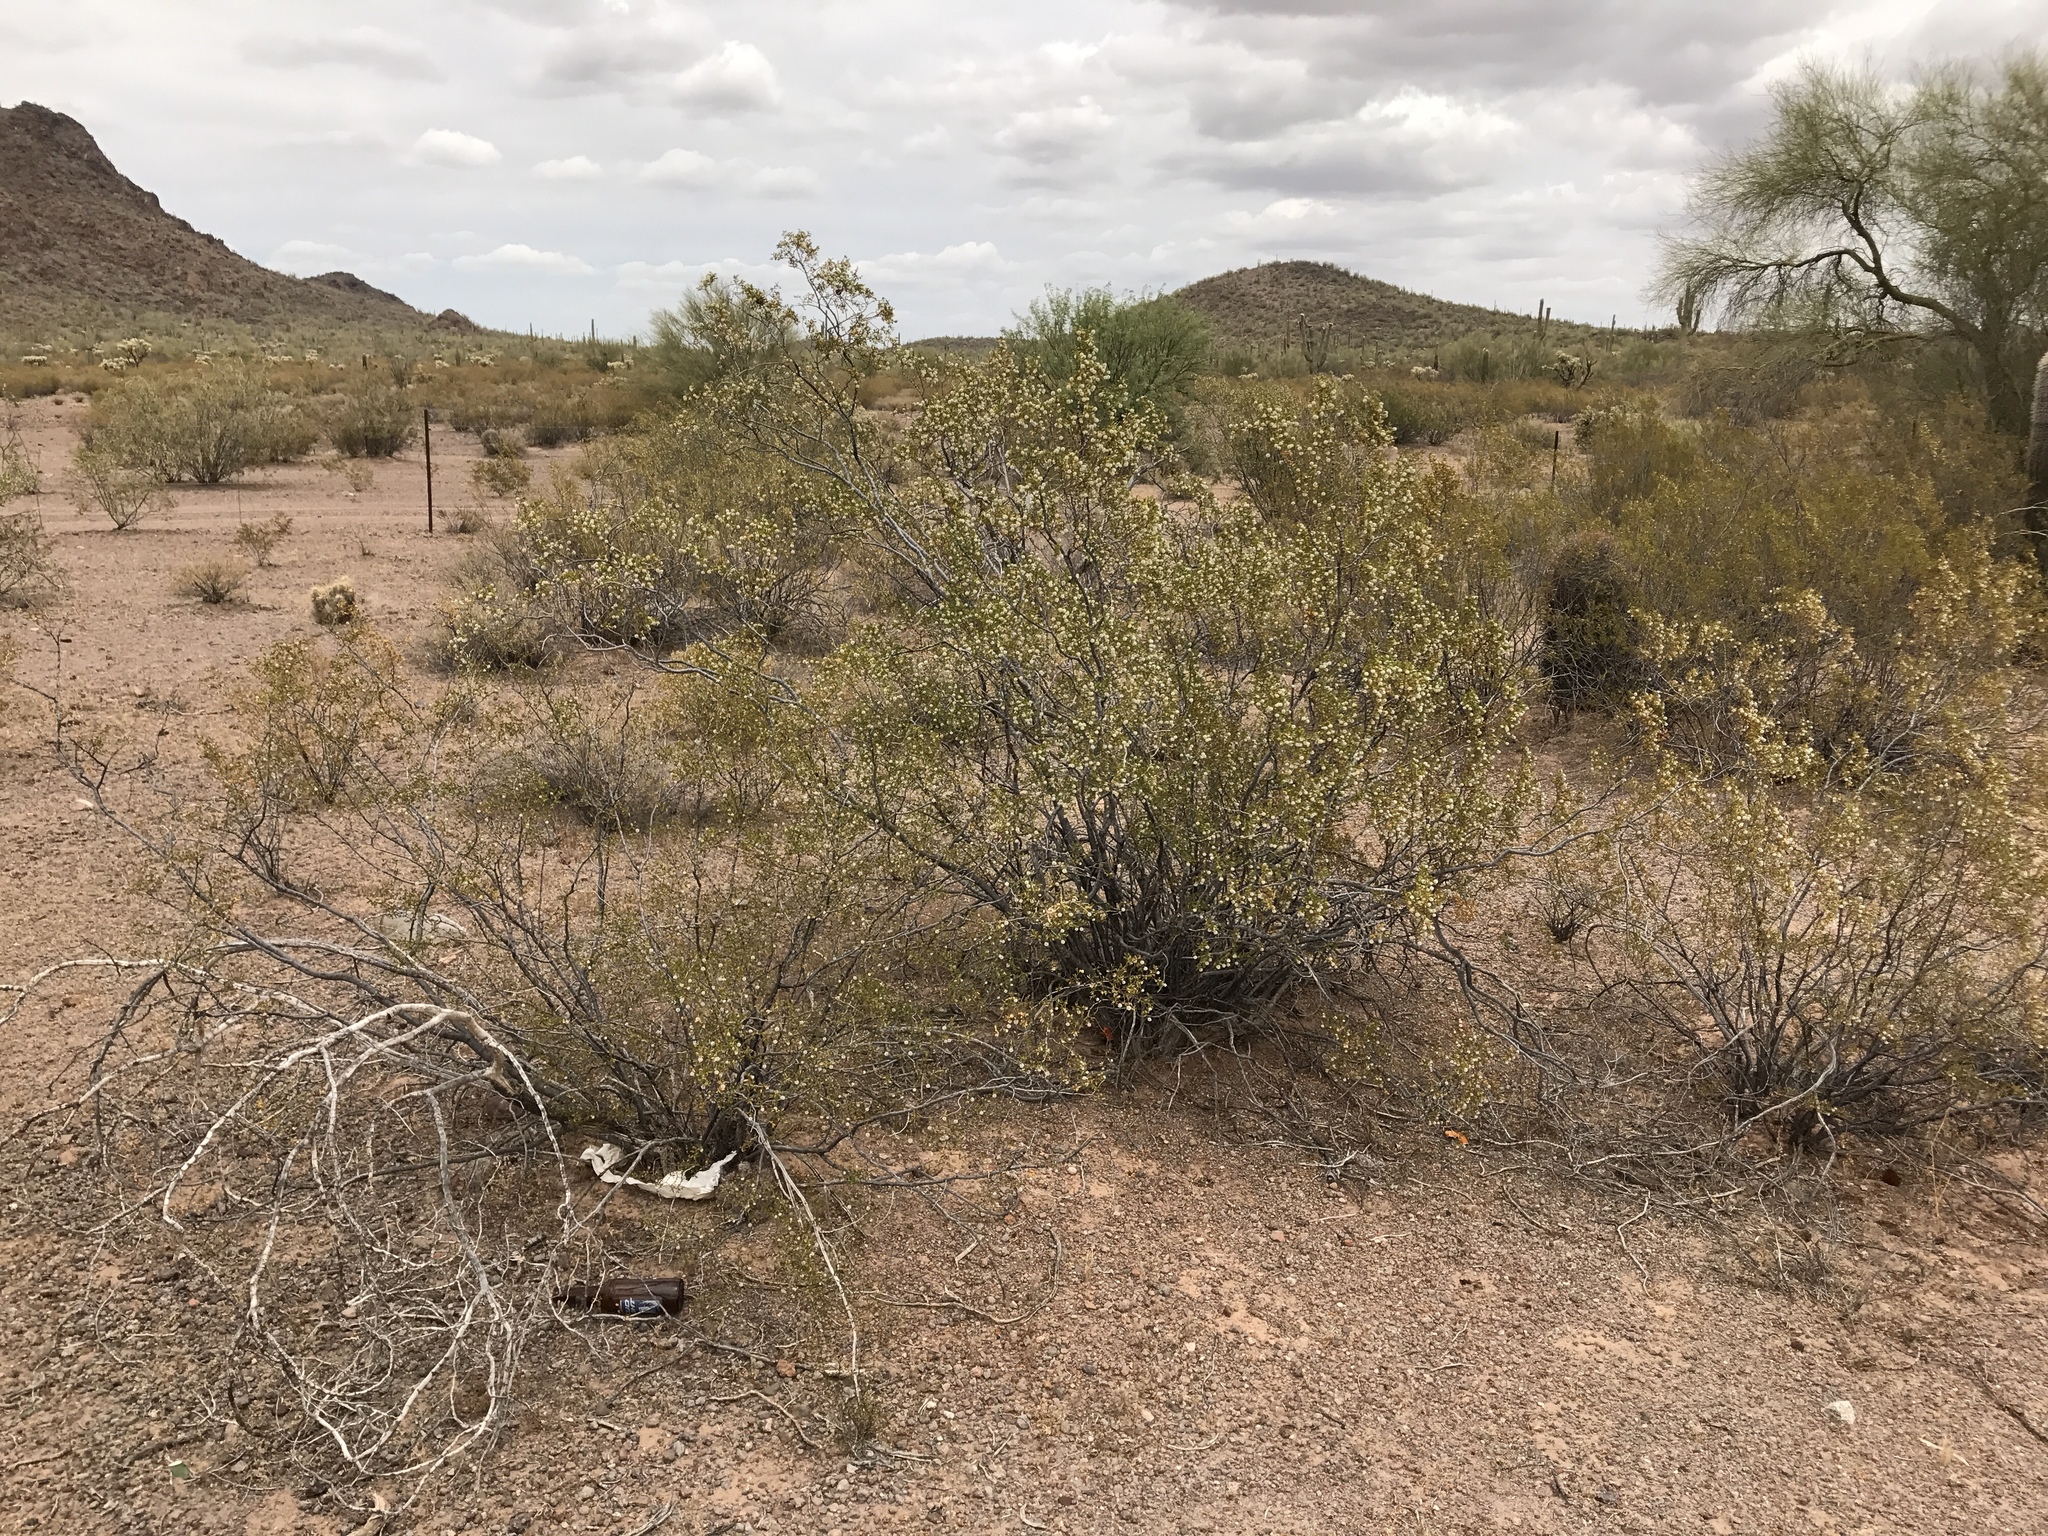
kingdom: Plantae
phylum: Tracheophyta
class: Magnoliopsida
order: Zygophyllales
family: Zygophyllaceae
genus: Larrea
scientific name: Larrea tridentata
